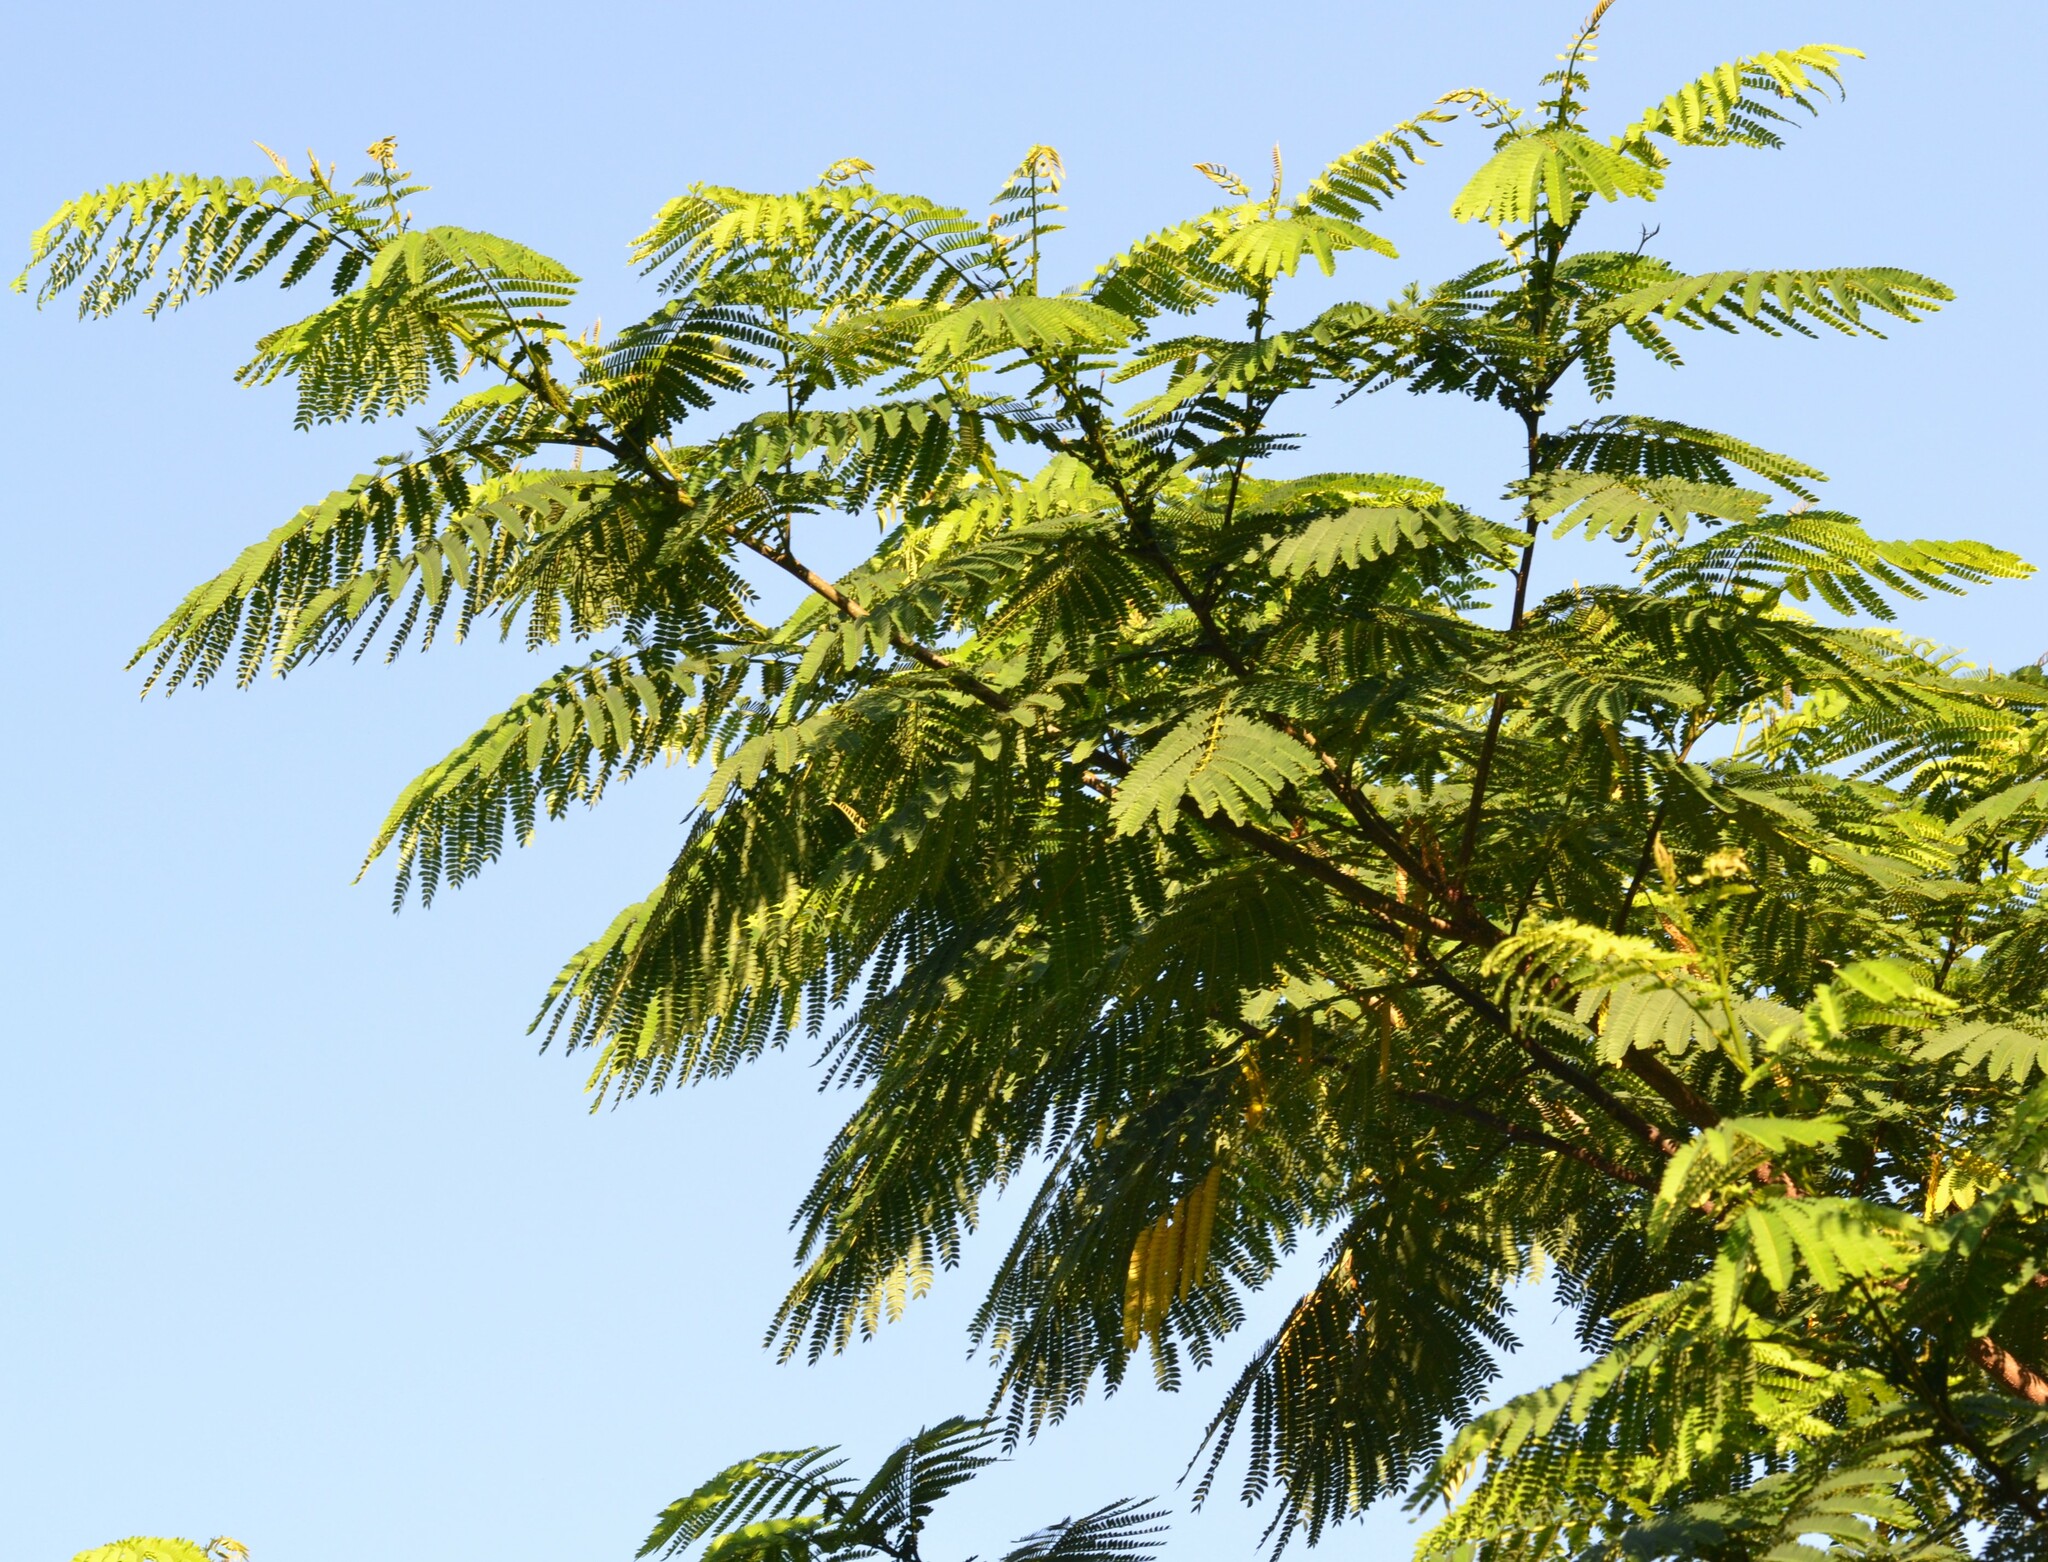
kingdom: Plantae
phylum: Tracheophyta
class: Magnoliopsida
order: Fabales
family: Fabaceae
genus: Falcataria
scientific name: Falcataria falcata
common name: Moluccan albizia
